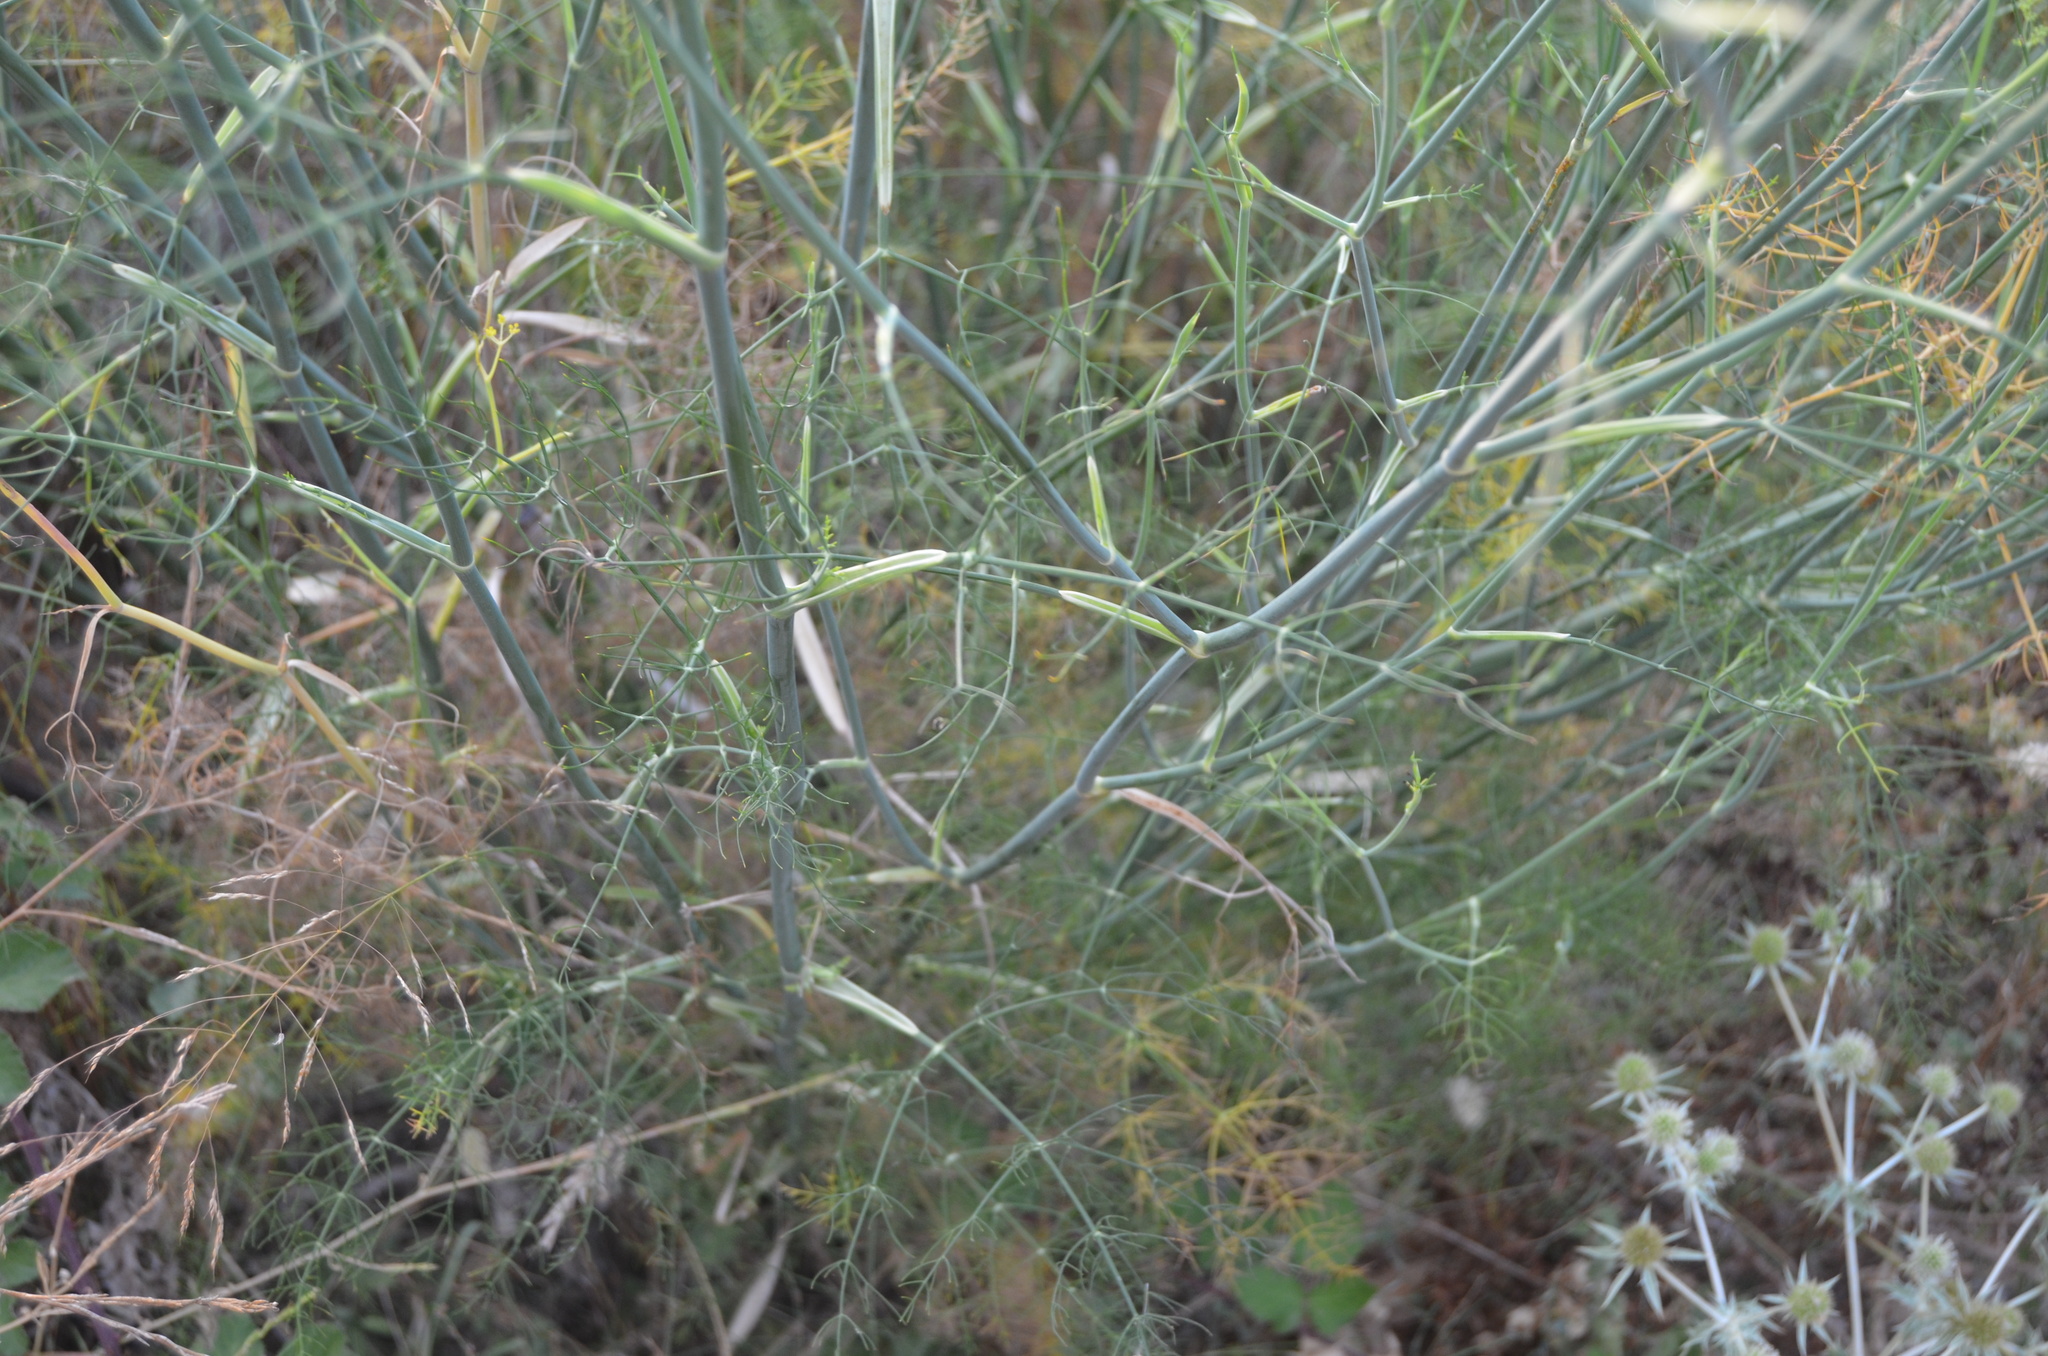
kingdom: Plantae
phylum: Tracheophyta
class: Magnoliopsida
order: Apiales
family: Apiaceae
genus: Foeniculum
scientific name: Foeniculum vulgare
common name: Fennel
